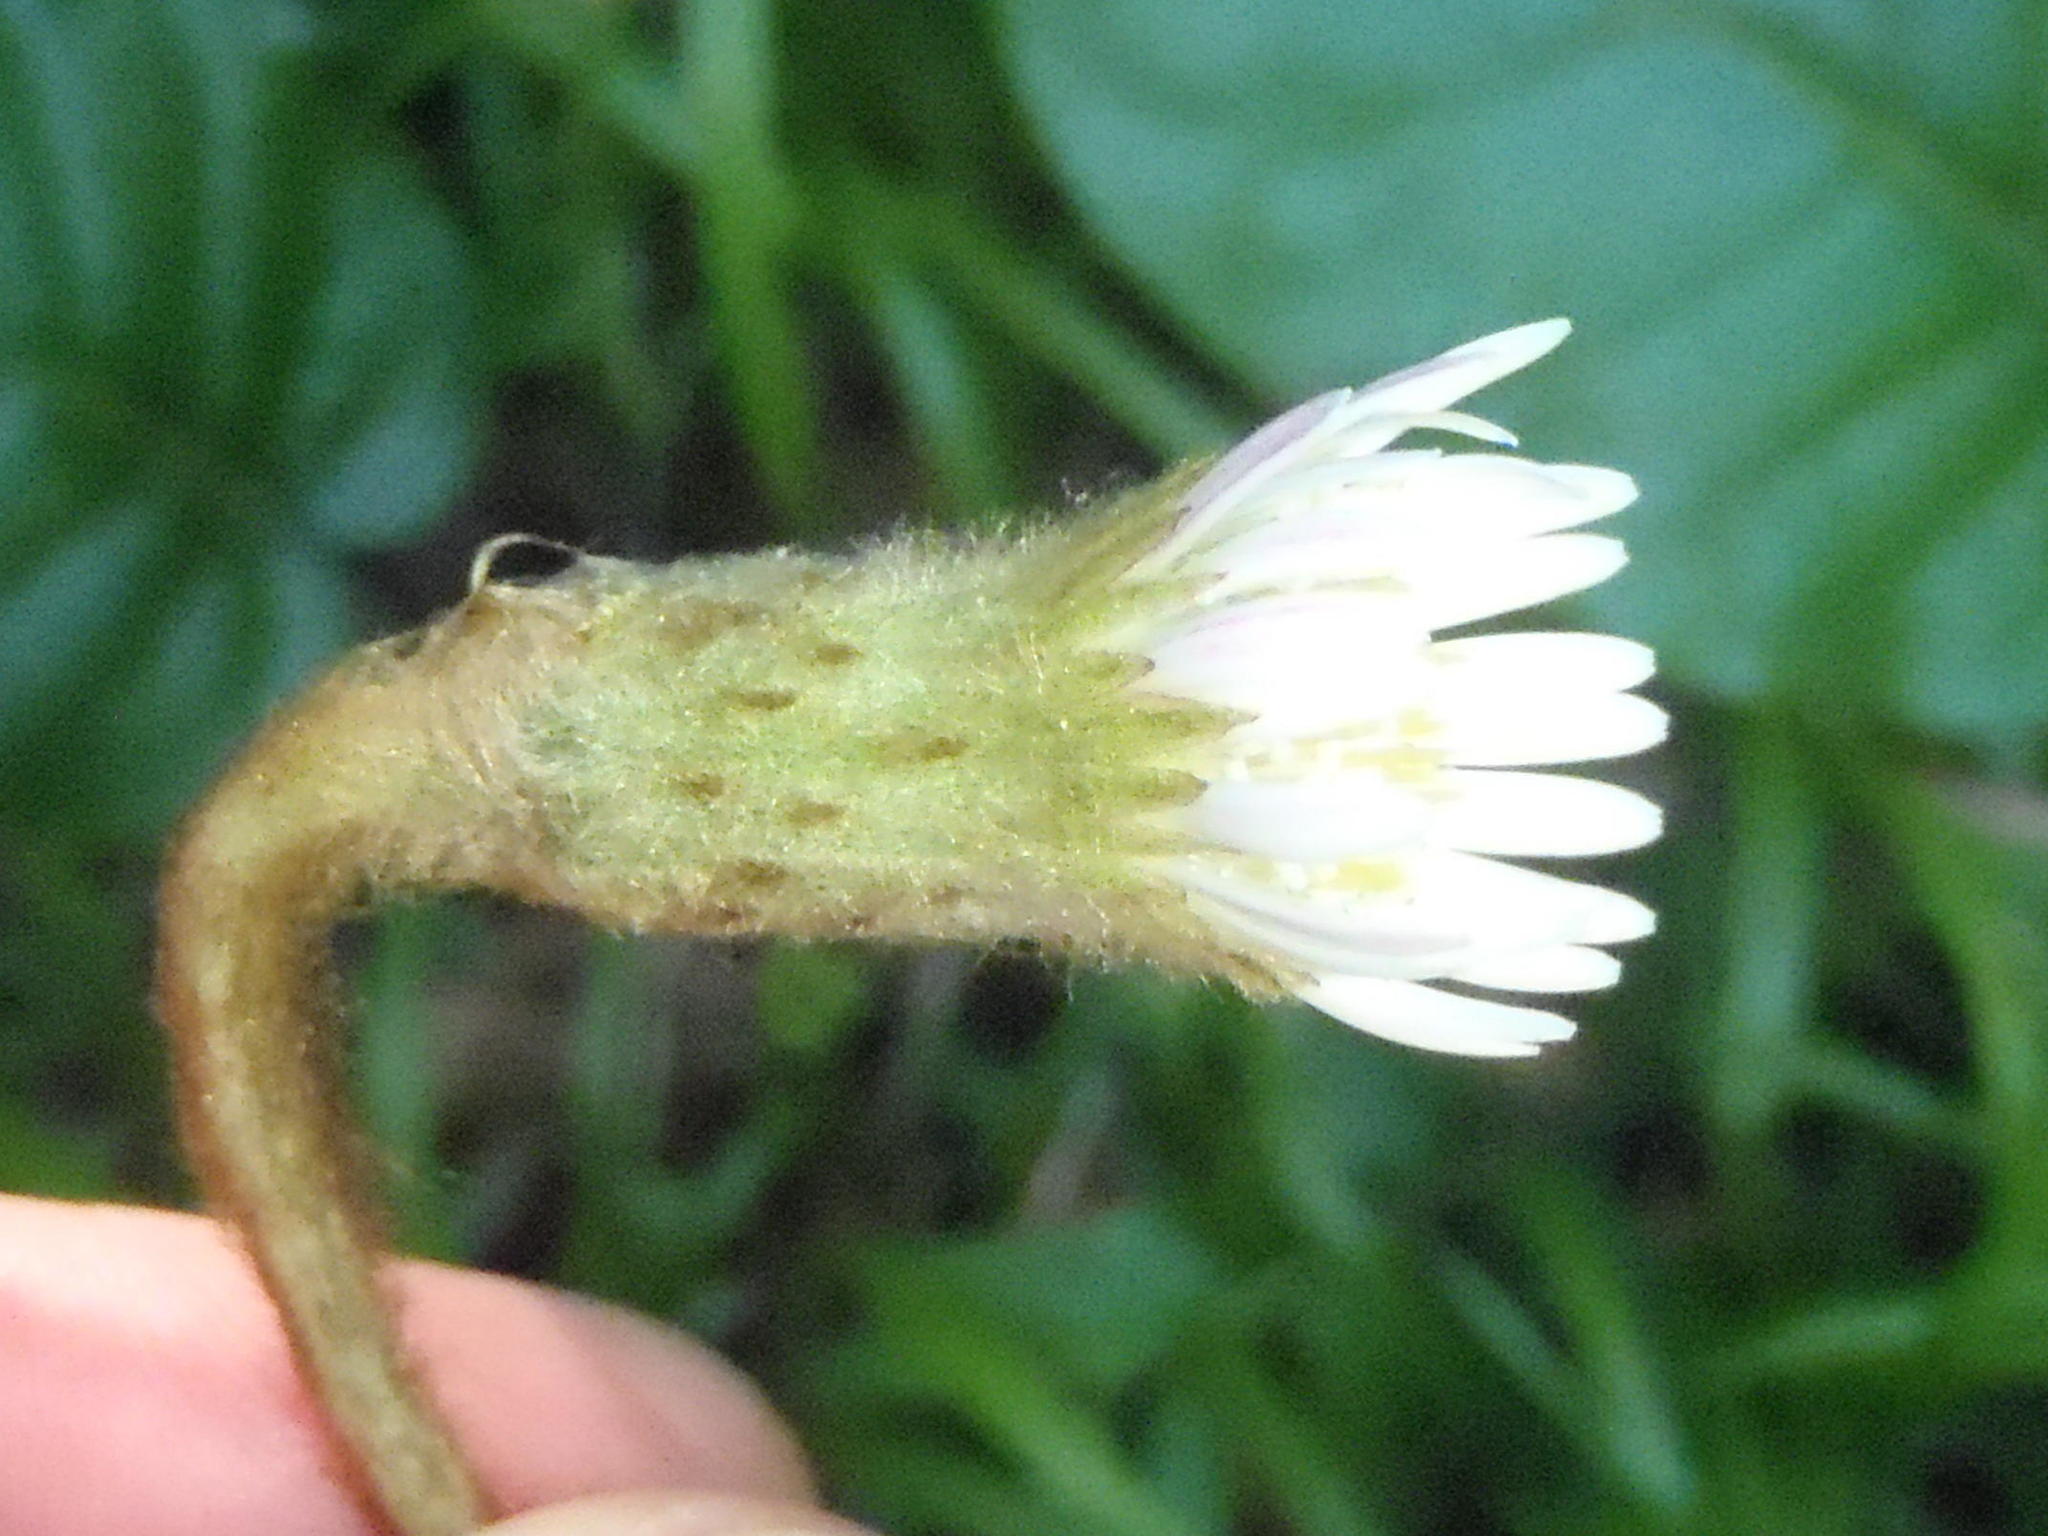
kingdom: Plantae
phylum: Tracheophyta
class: Magnoliopsida
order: Asterales
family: Asteraceae
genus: Piloselloides
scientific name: Piloselloides cordata
